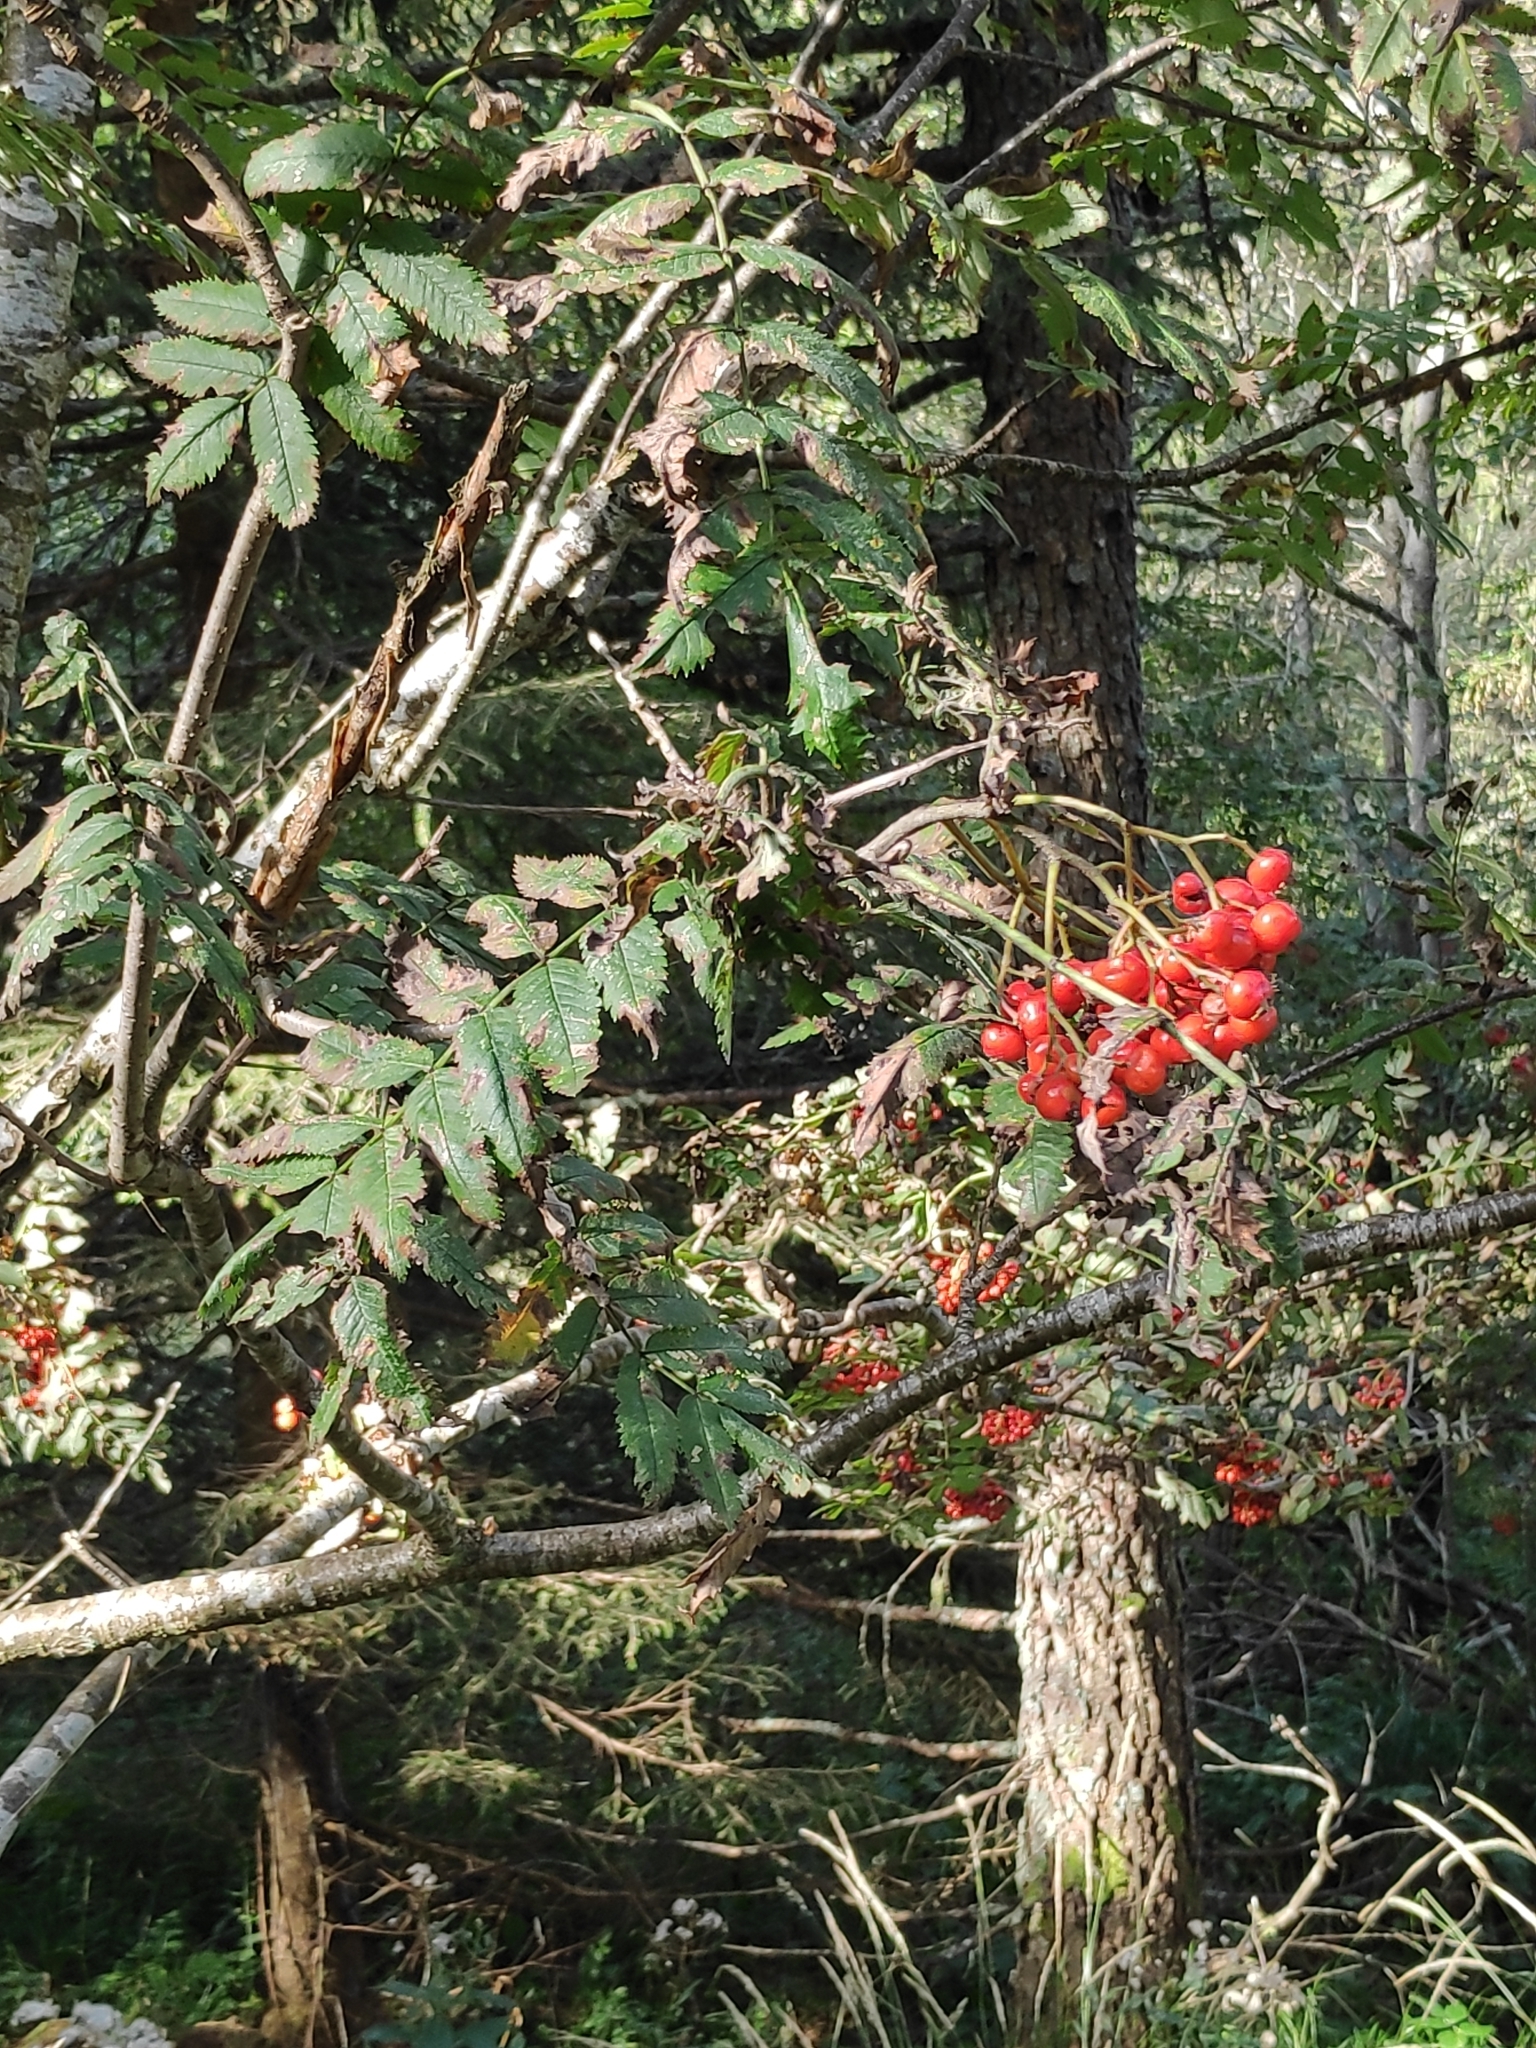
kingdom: Plantae
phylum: Tracheophyta
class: Magnoliopsida
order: Rosales
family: Rosaceae
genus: Sorbus
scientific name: Sorbus aucuparia
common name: Rowan
